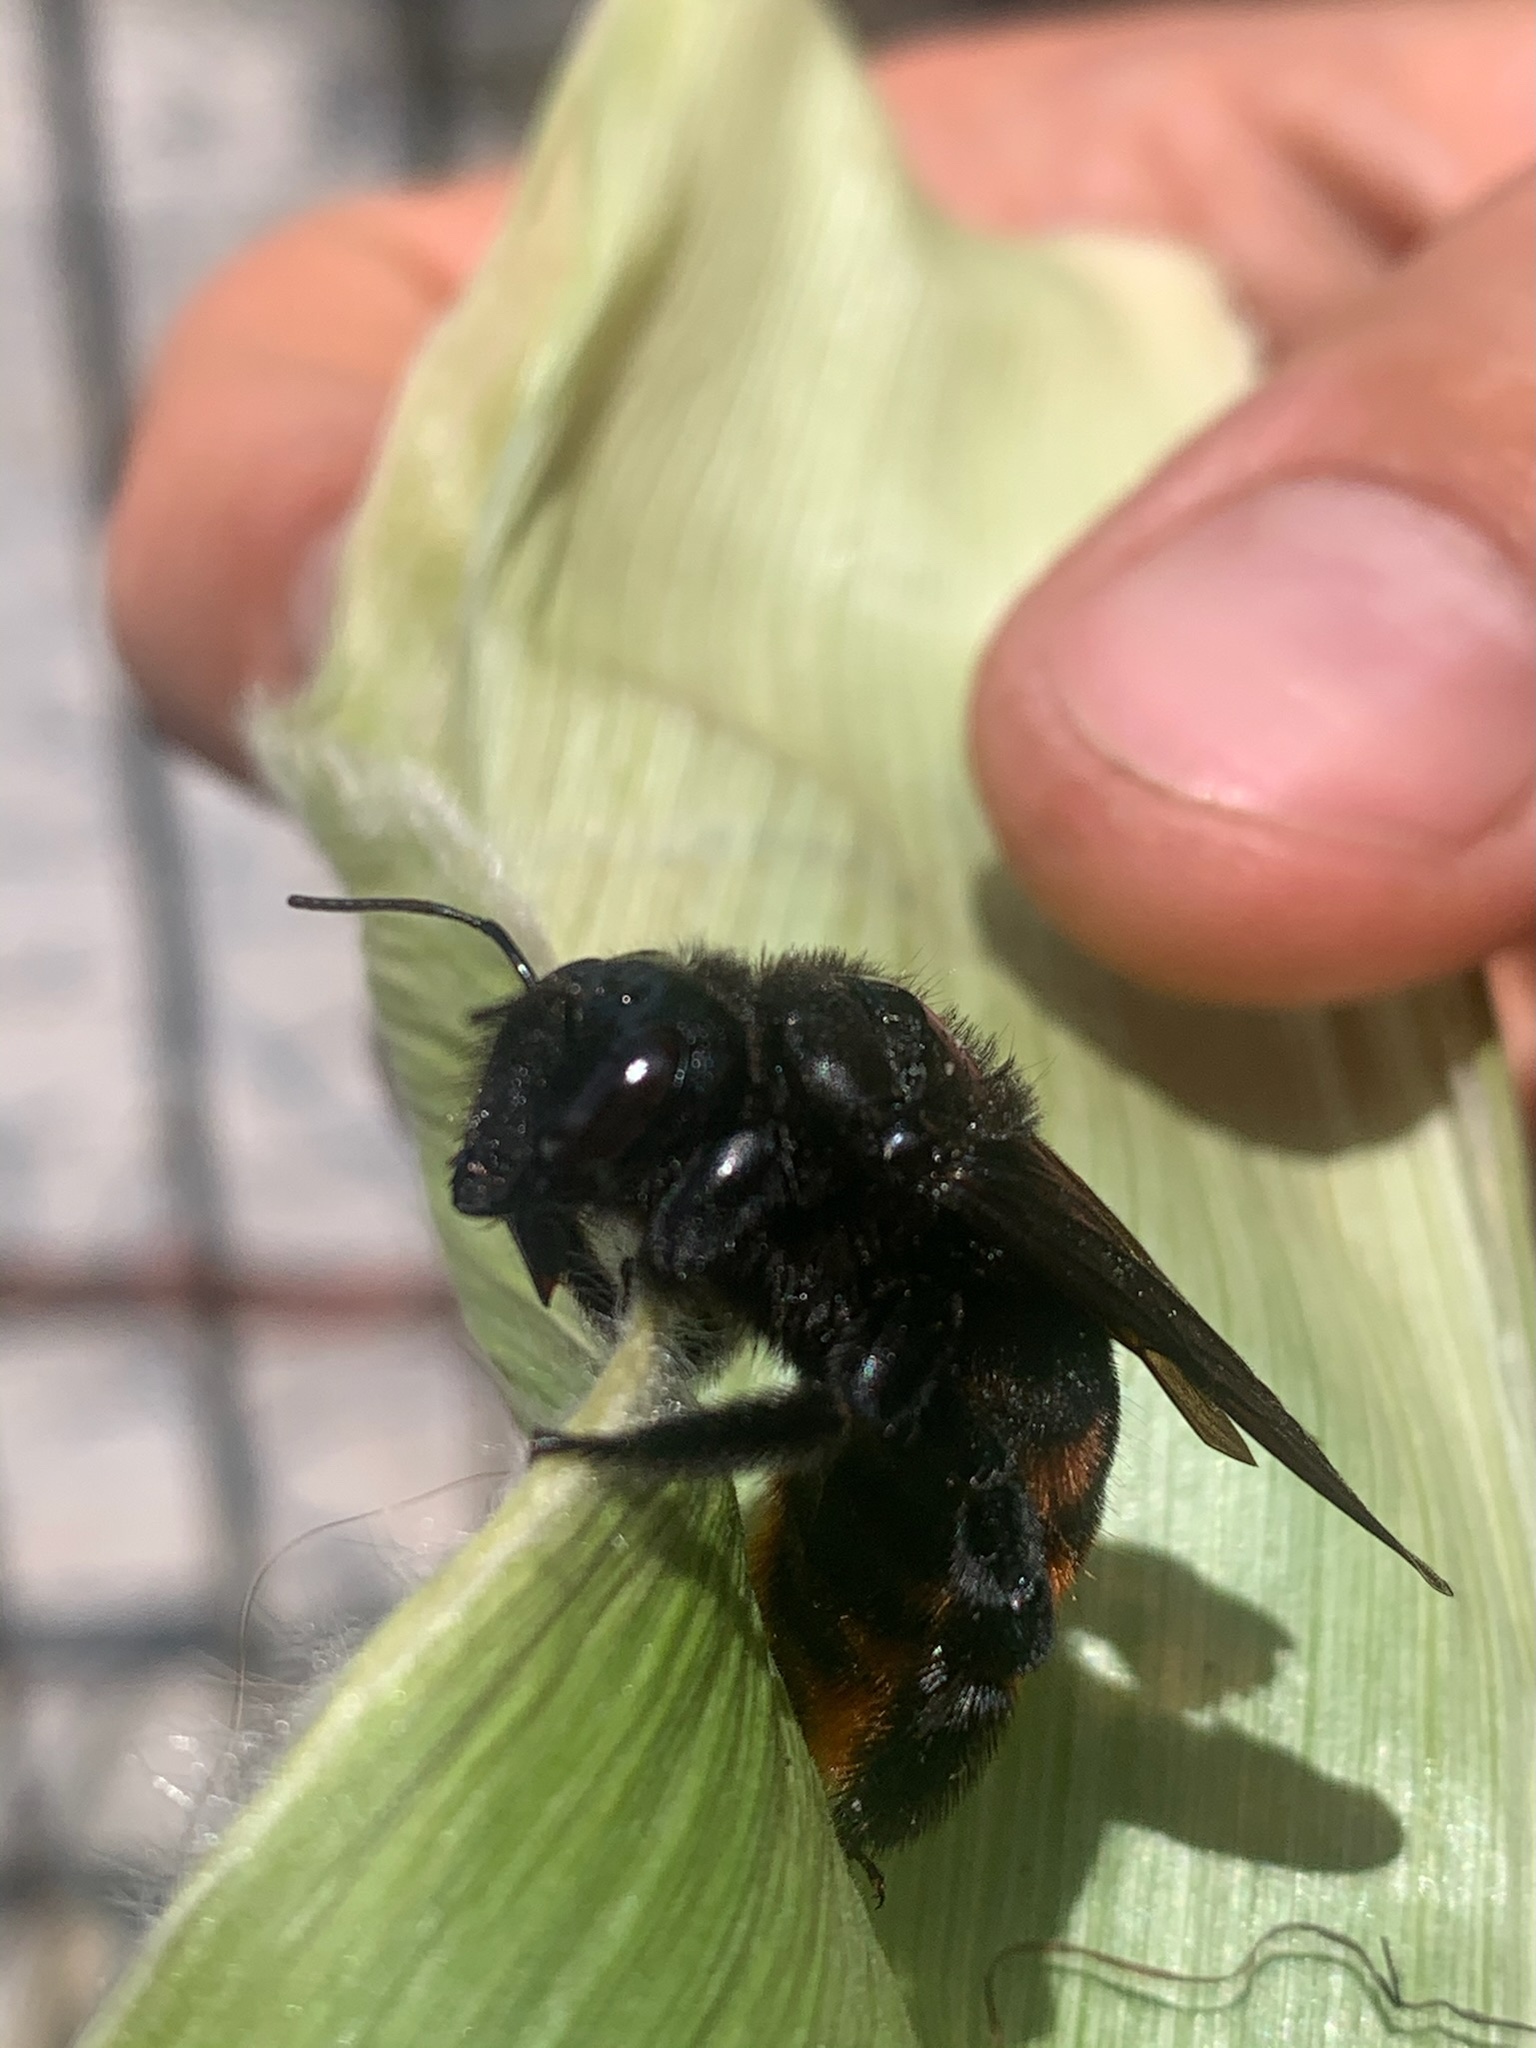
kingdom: Animalia
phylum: Arthropoda
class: Insecta
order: Hymenoptera
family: Apidae
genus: Xylocopa
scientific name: Xylocopa augusti
